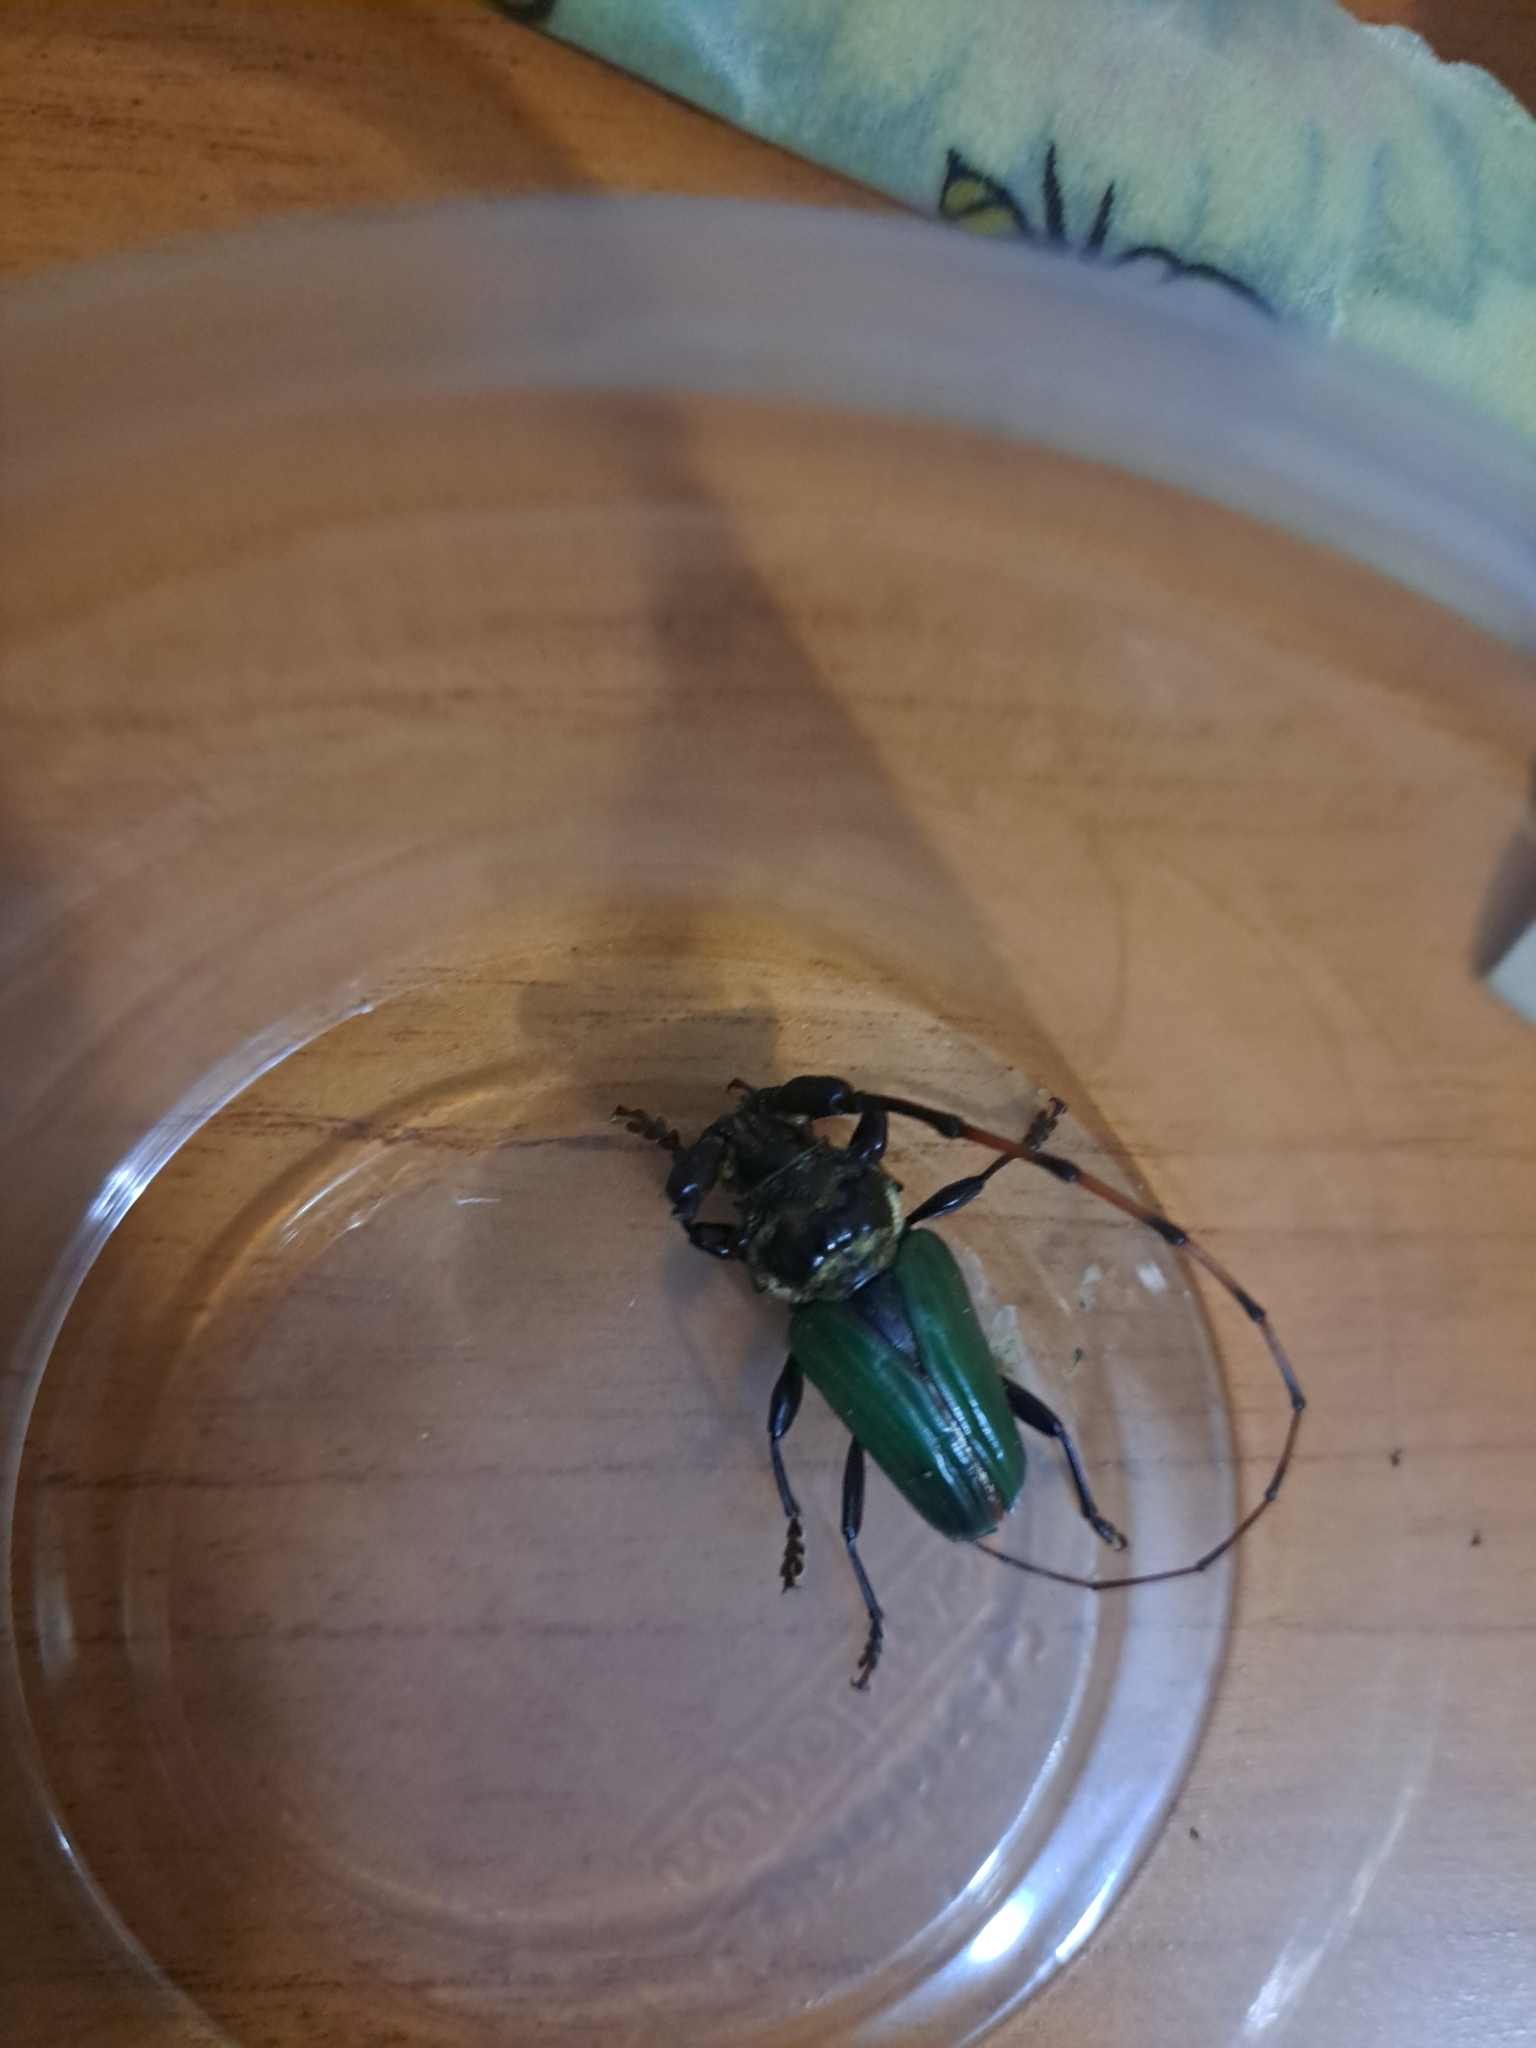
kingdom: Animalia
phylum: Arthropoda
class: Insecta
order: Coleoptera
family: Cerambycidae
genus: Retrachydes
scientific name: Retrachydes thoracicus
